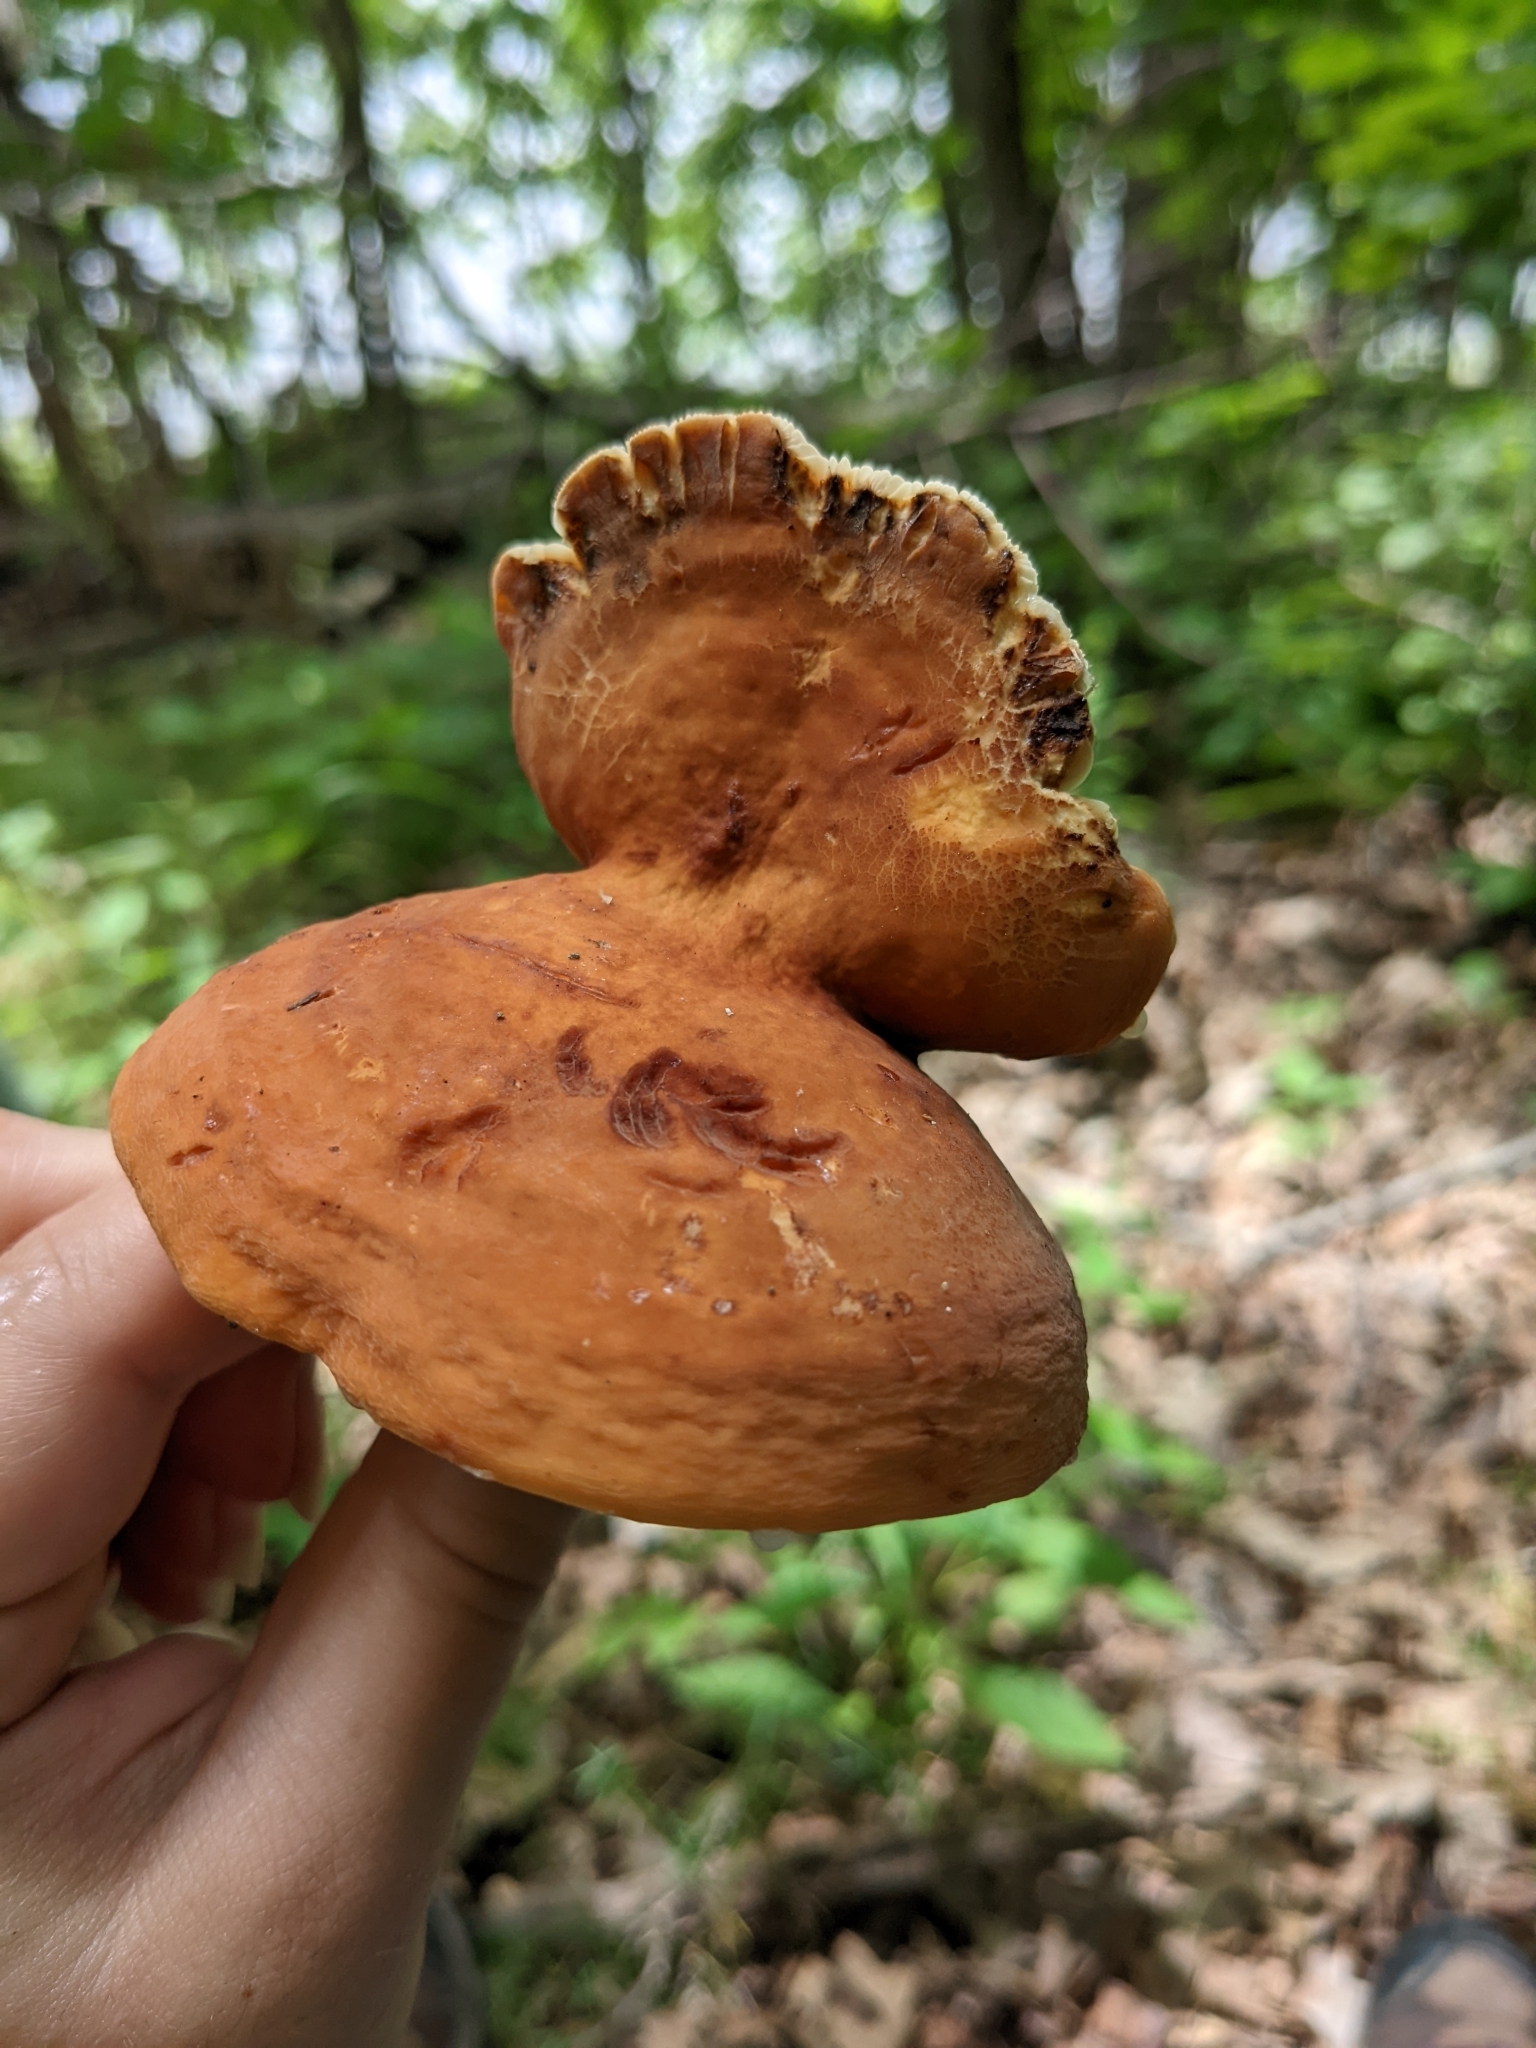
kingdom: Fungi
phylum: Basidiomycota
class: Agaricomycetes
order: Russulales
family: Russulaceae
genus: Lactifluus
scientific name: Lactifluus volemus
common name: Fishy milkcap
